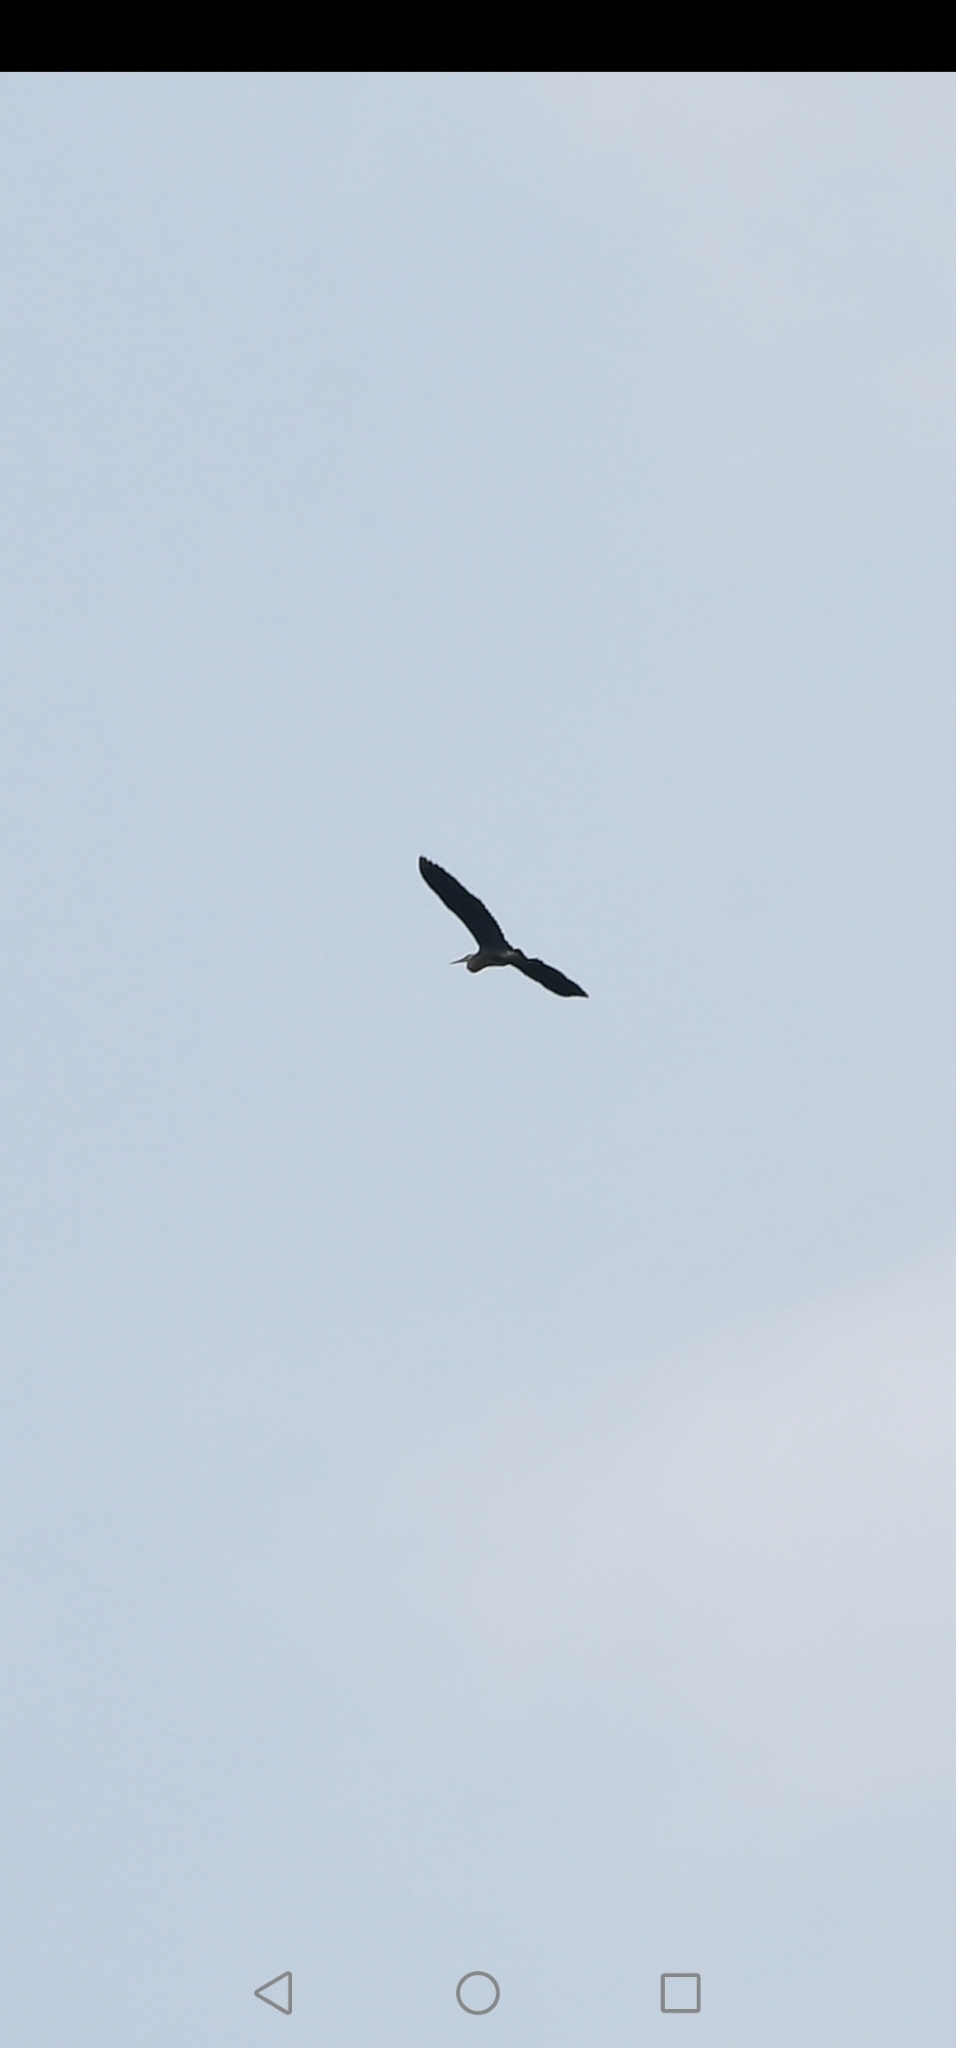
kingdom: Animalia
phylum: Chordata
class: Aves
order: Pelecaniformes
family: Ardeidae
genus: Ardea
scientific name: Ardea herodias
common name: Great blue heron
